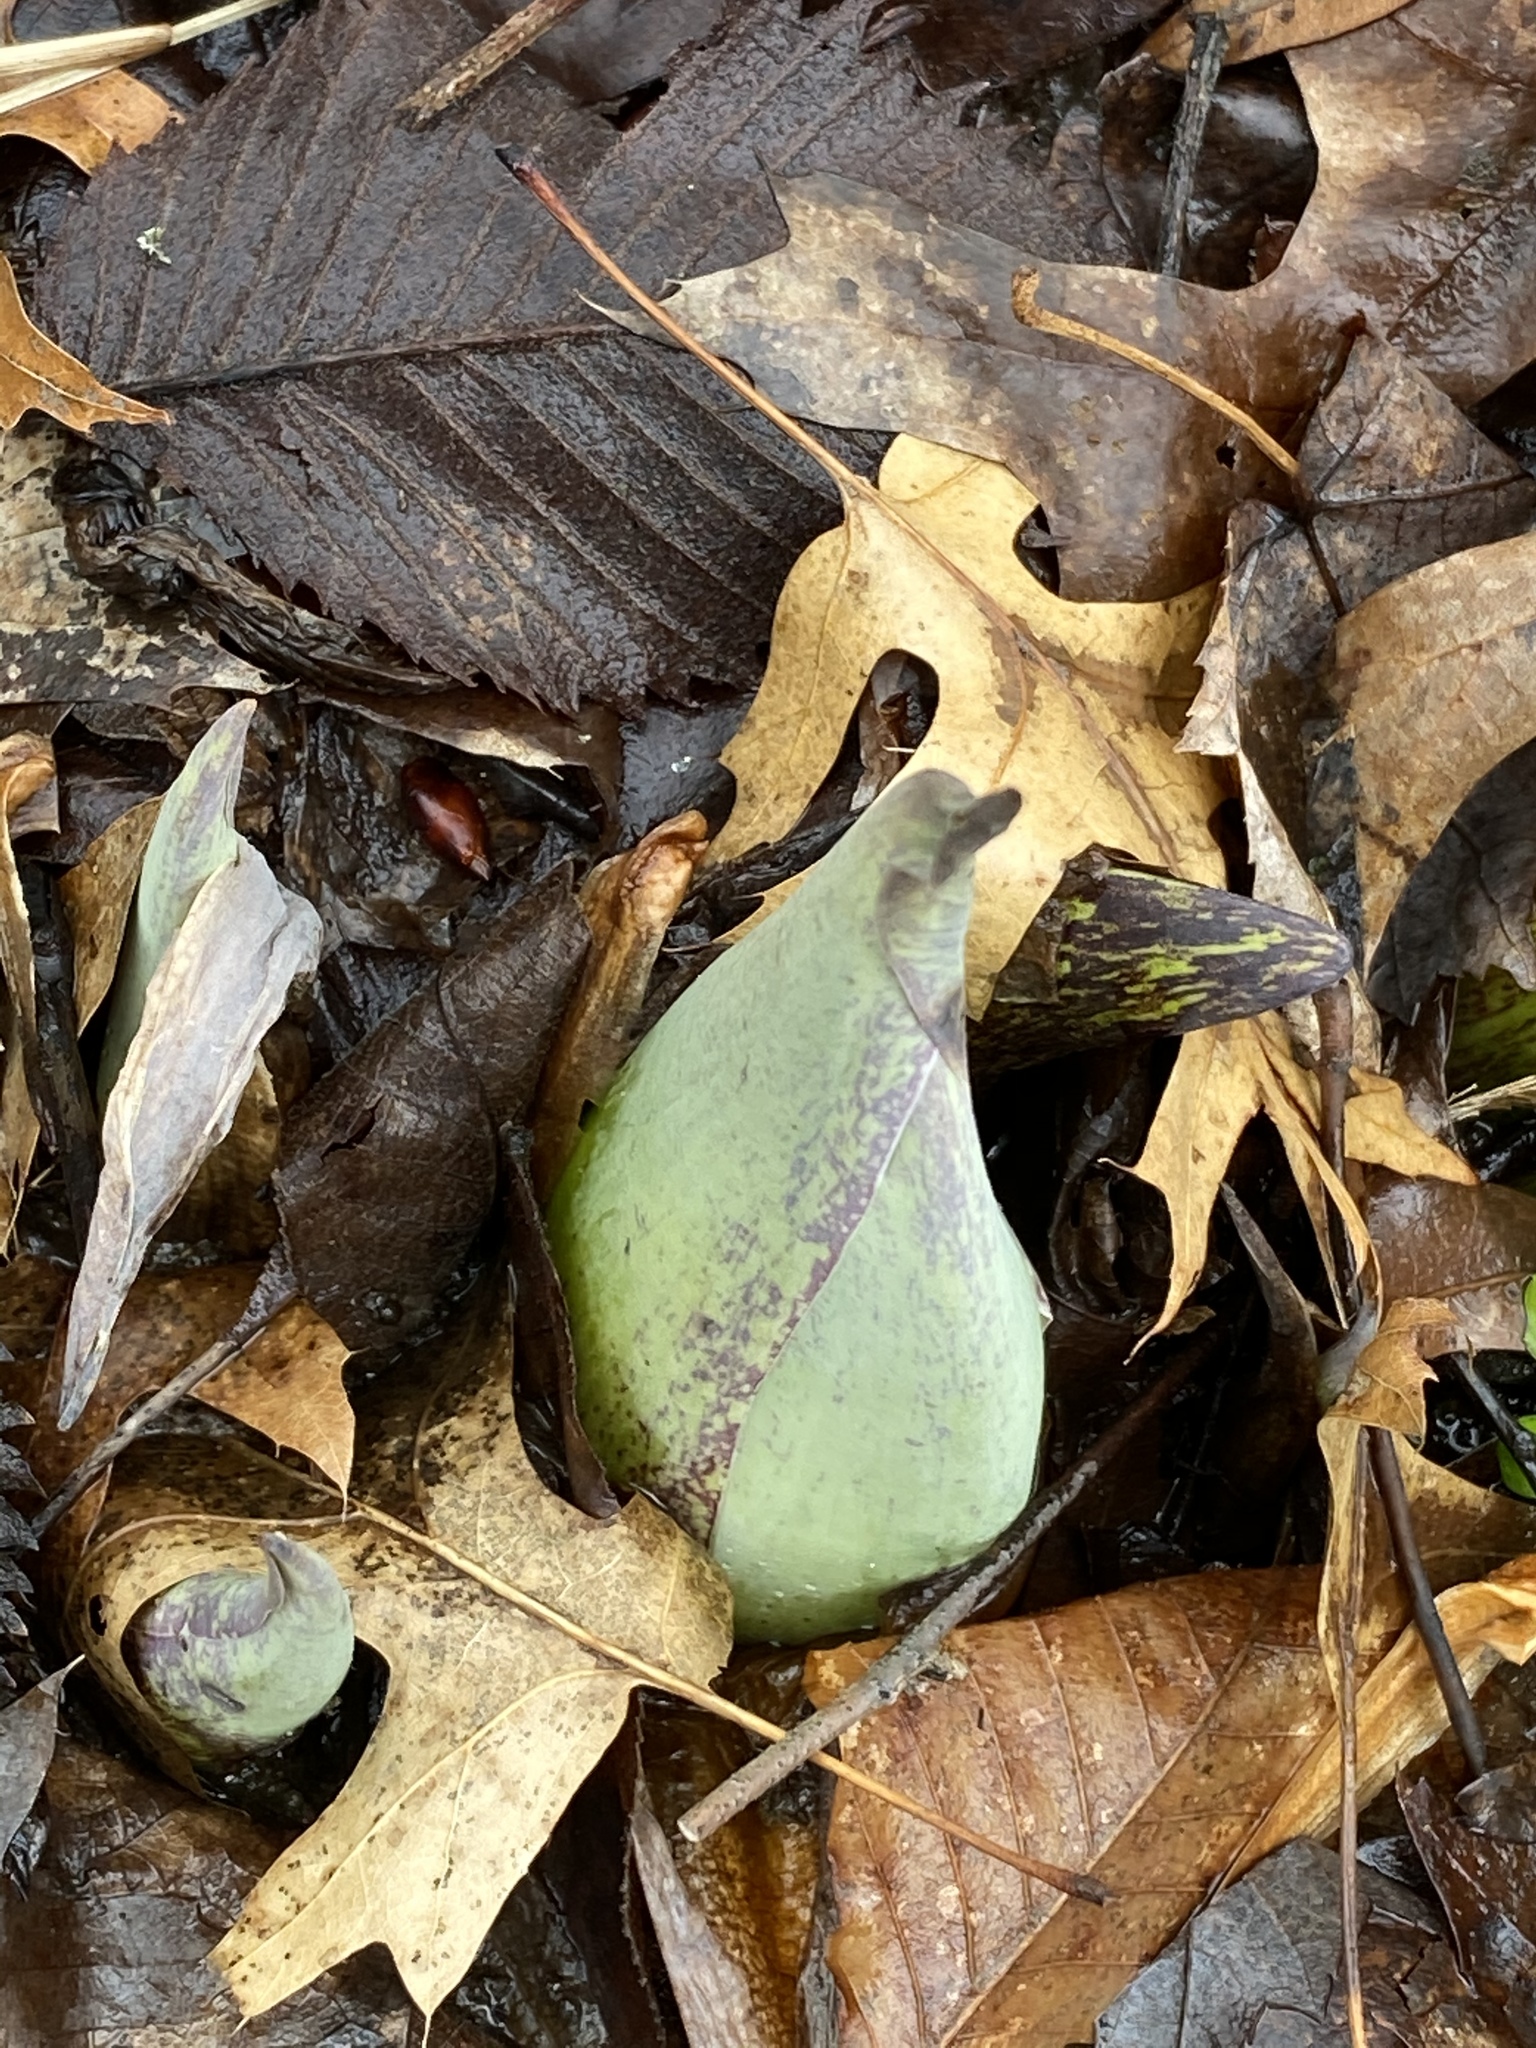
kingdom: Plantae
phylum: Tracheophyta
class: Liliopsida
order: Alismatales
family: Araceae
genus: Symplocarpus
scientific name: Symplocarpus foetidus
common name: Eastern skunk cabbage
